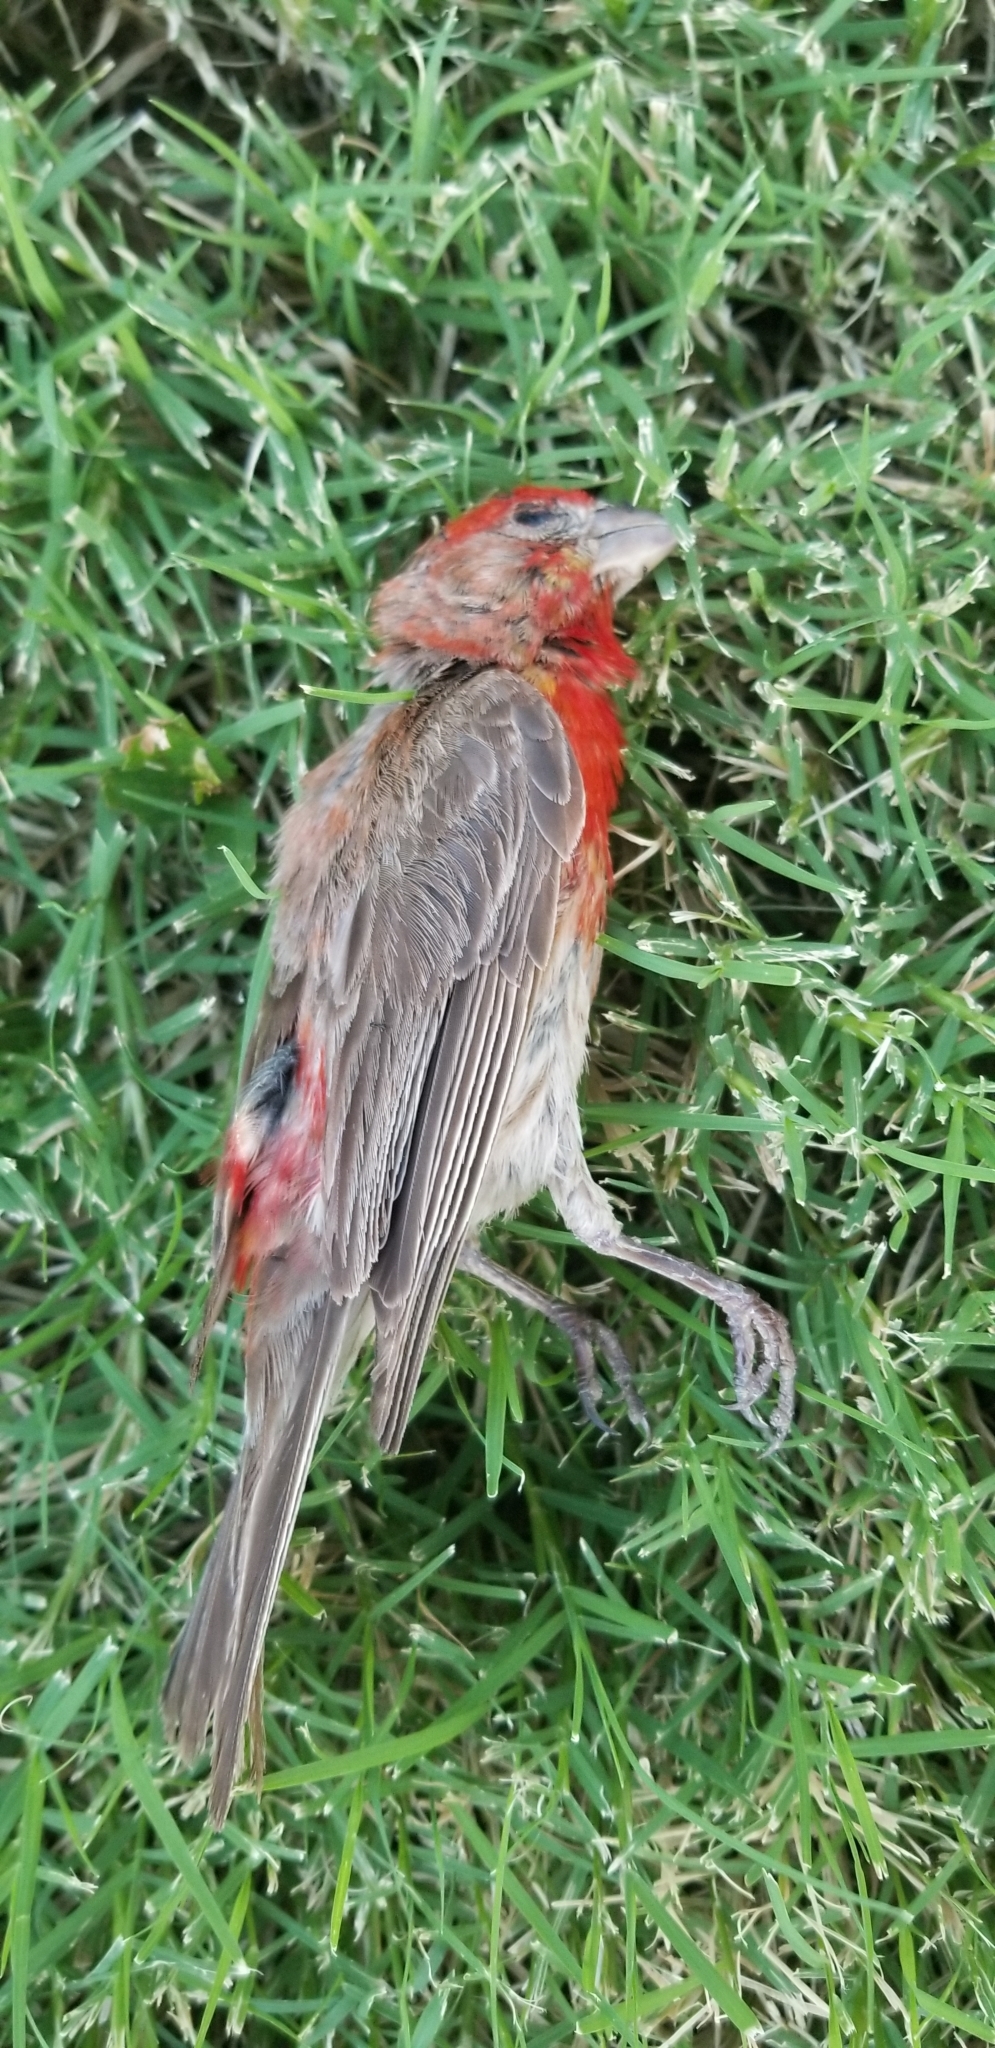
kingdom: Animalia
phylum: Chordata
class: Aves
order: Passeriformes
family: Fringillidae
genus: Haemorhous
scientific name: Haemorhous mexicanus
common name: House finch
